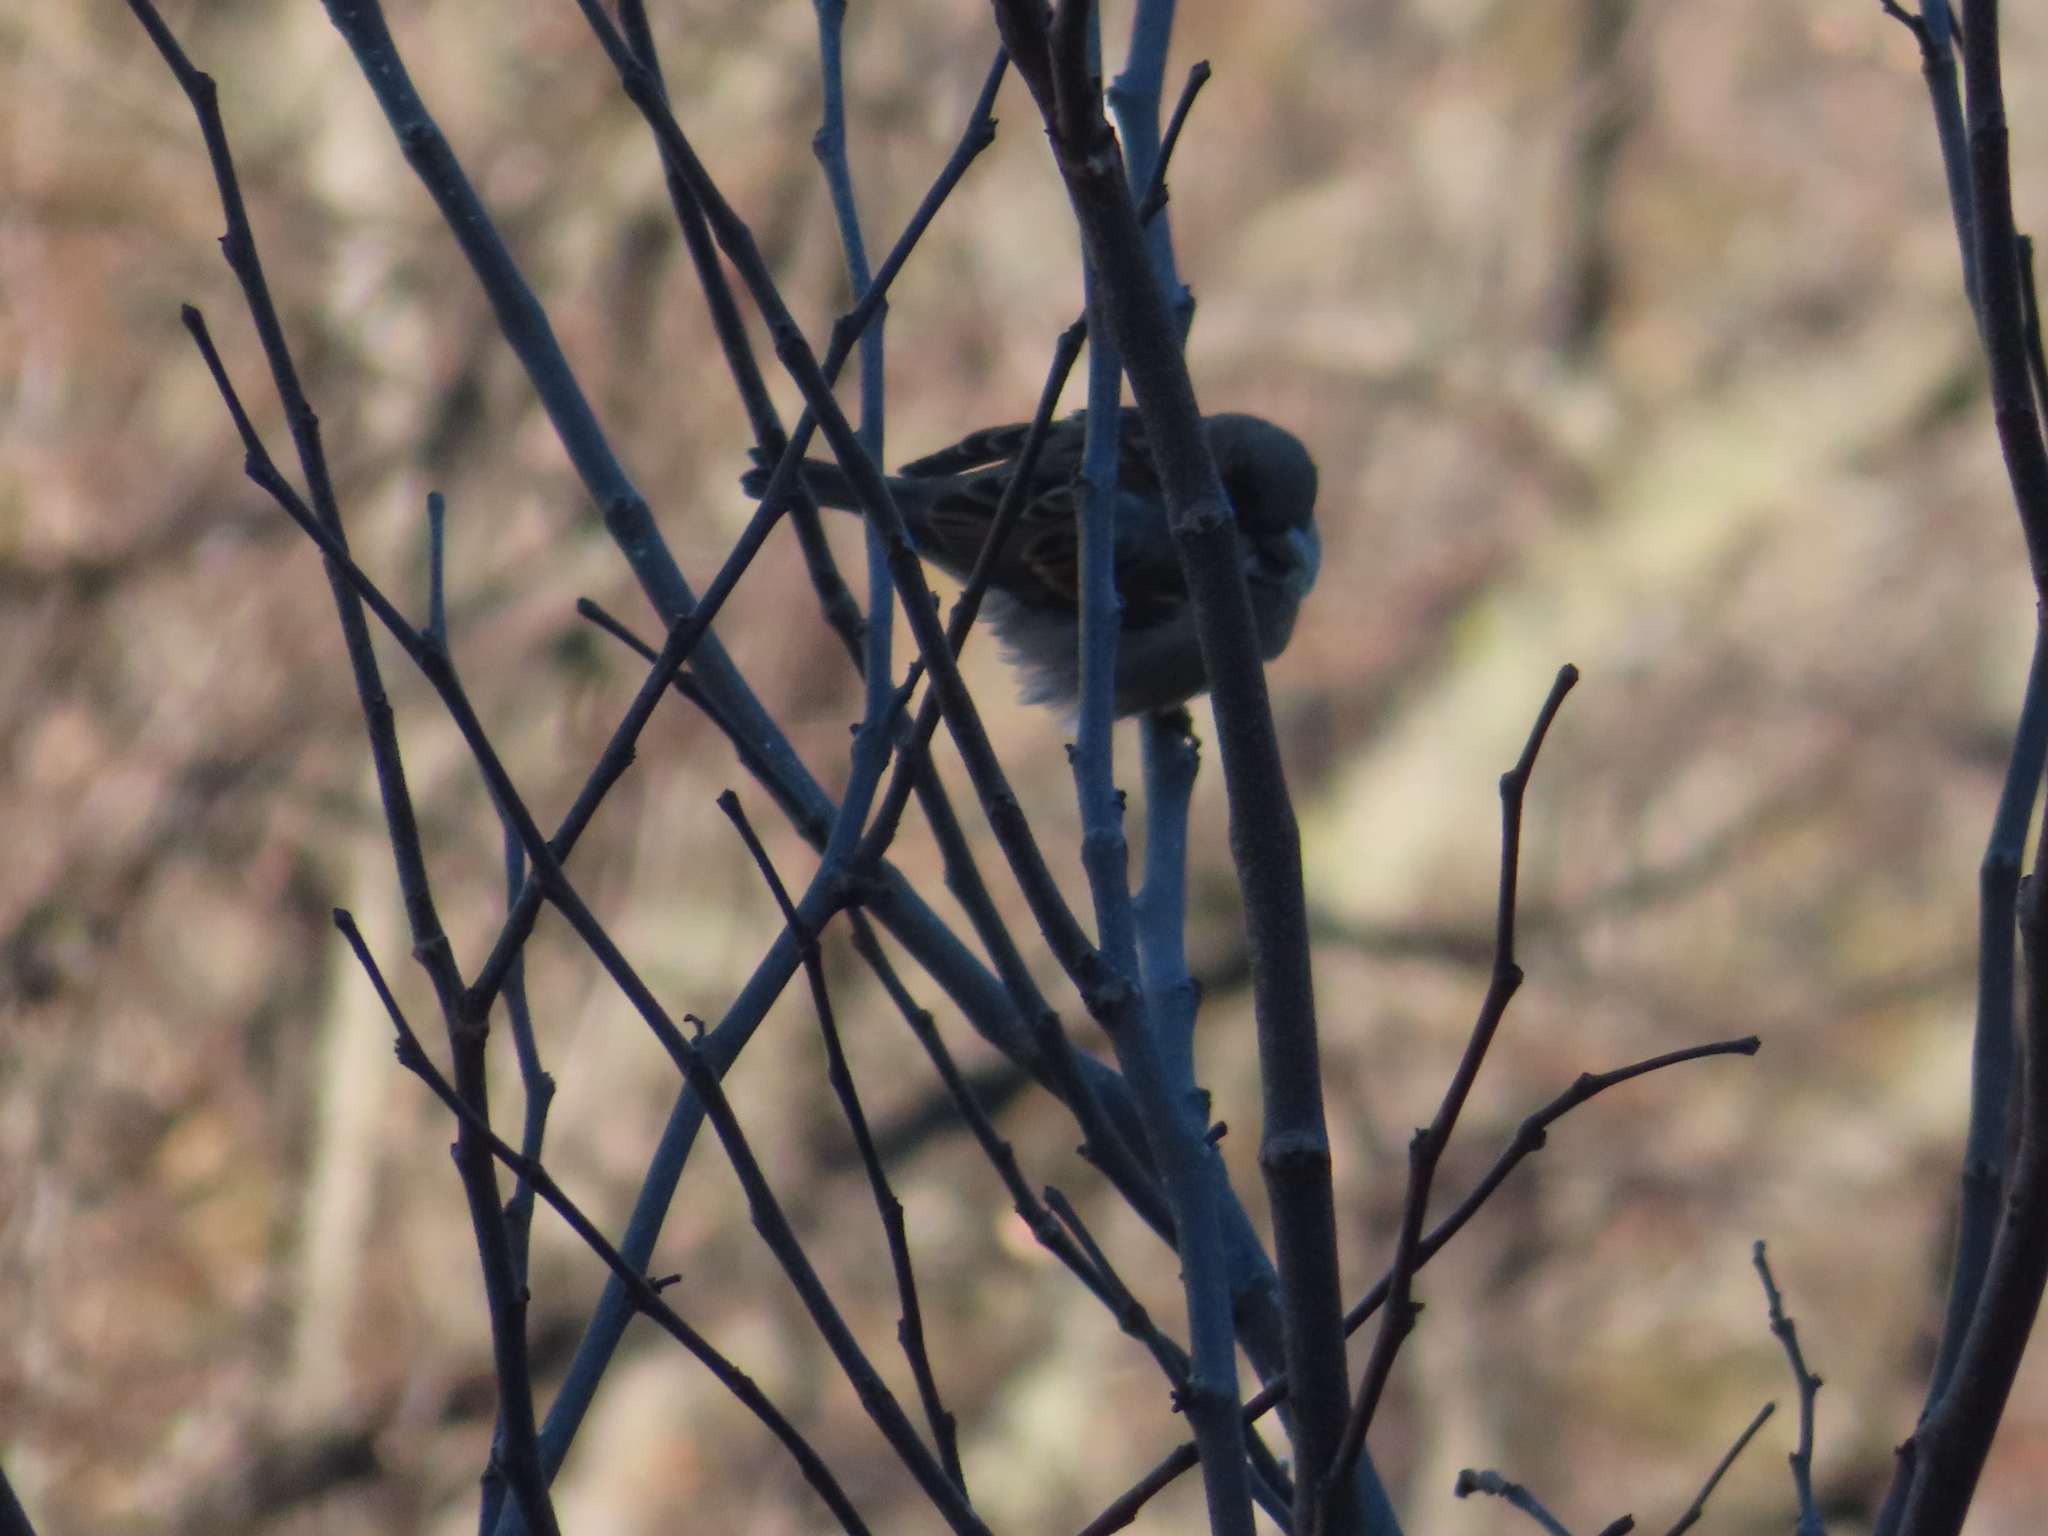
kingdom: Animalia
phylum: Chordata
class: Aves
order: Passeriformes
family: Passeridae
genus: Passer
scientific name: Passer domesticus
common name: House sparrow
